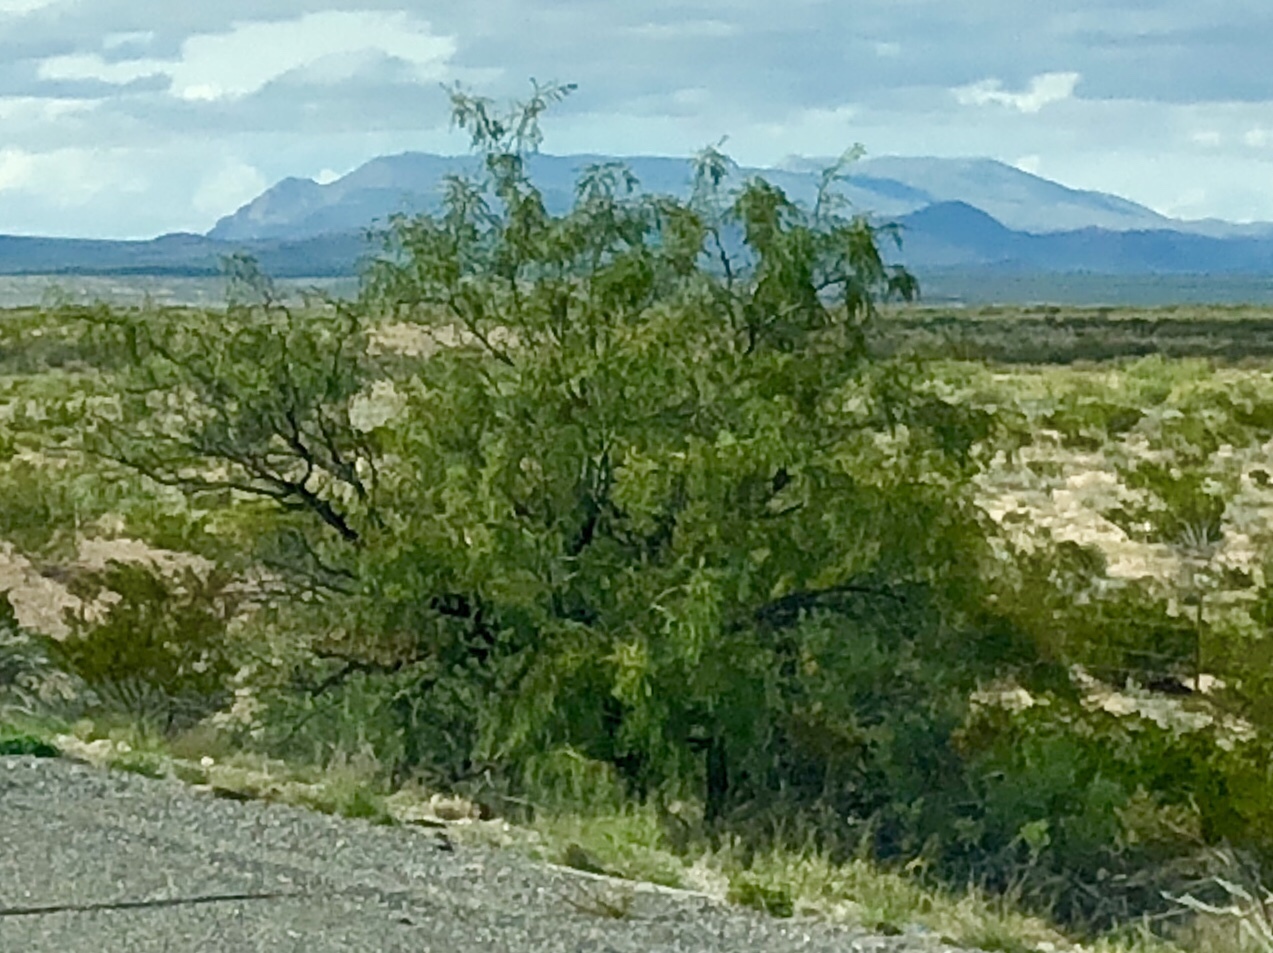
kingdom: Plantae
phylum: Tracheophyta
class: Magnoliopsida
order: Fabales
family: Fabaceae
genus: Prosopis
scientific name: Prosopis glandulosa
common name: Honey mesquite
